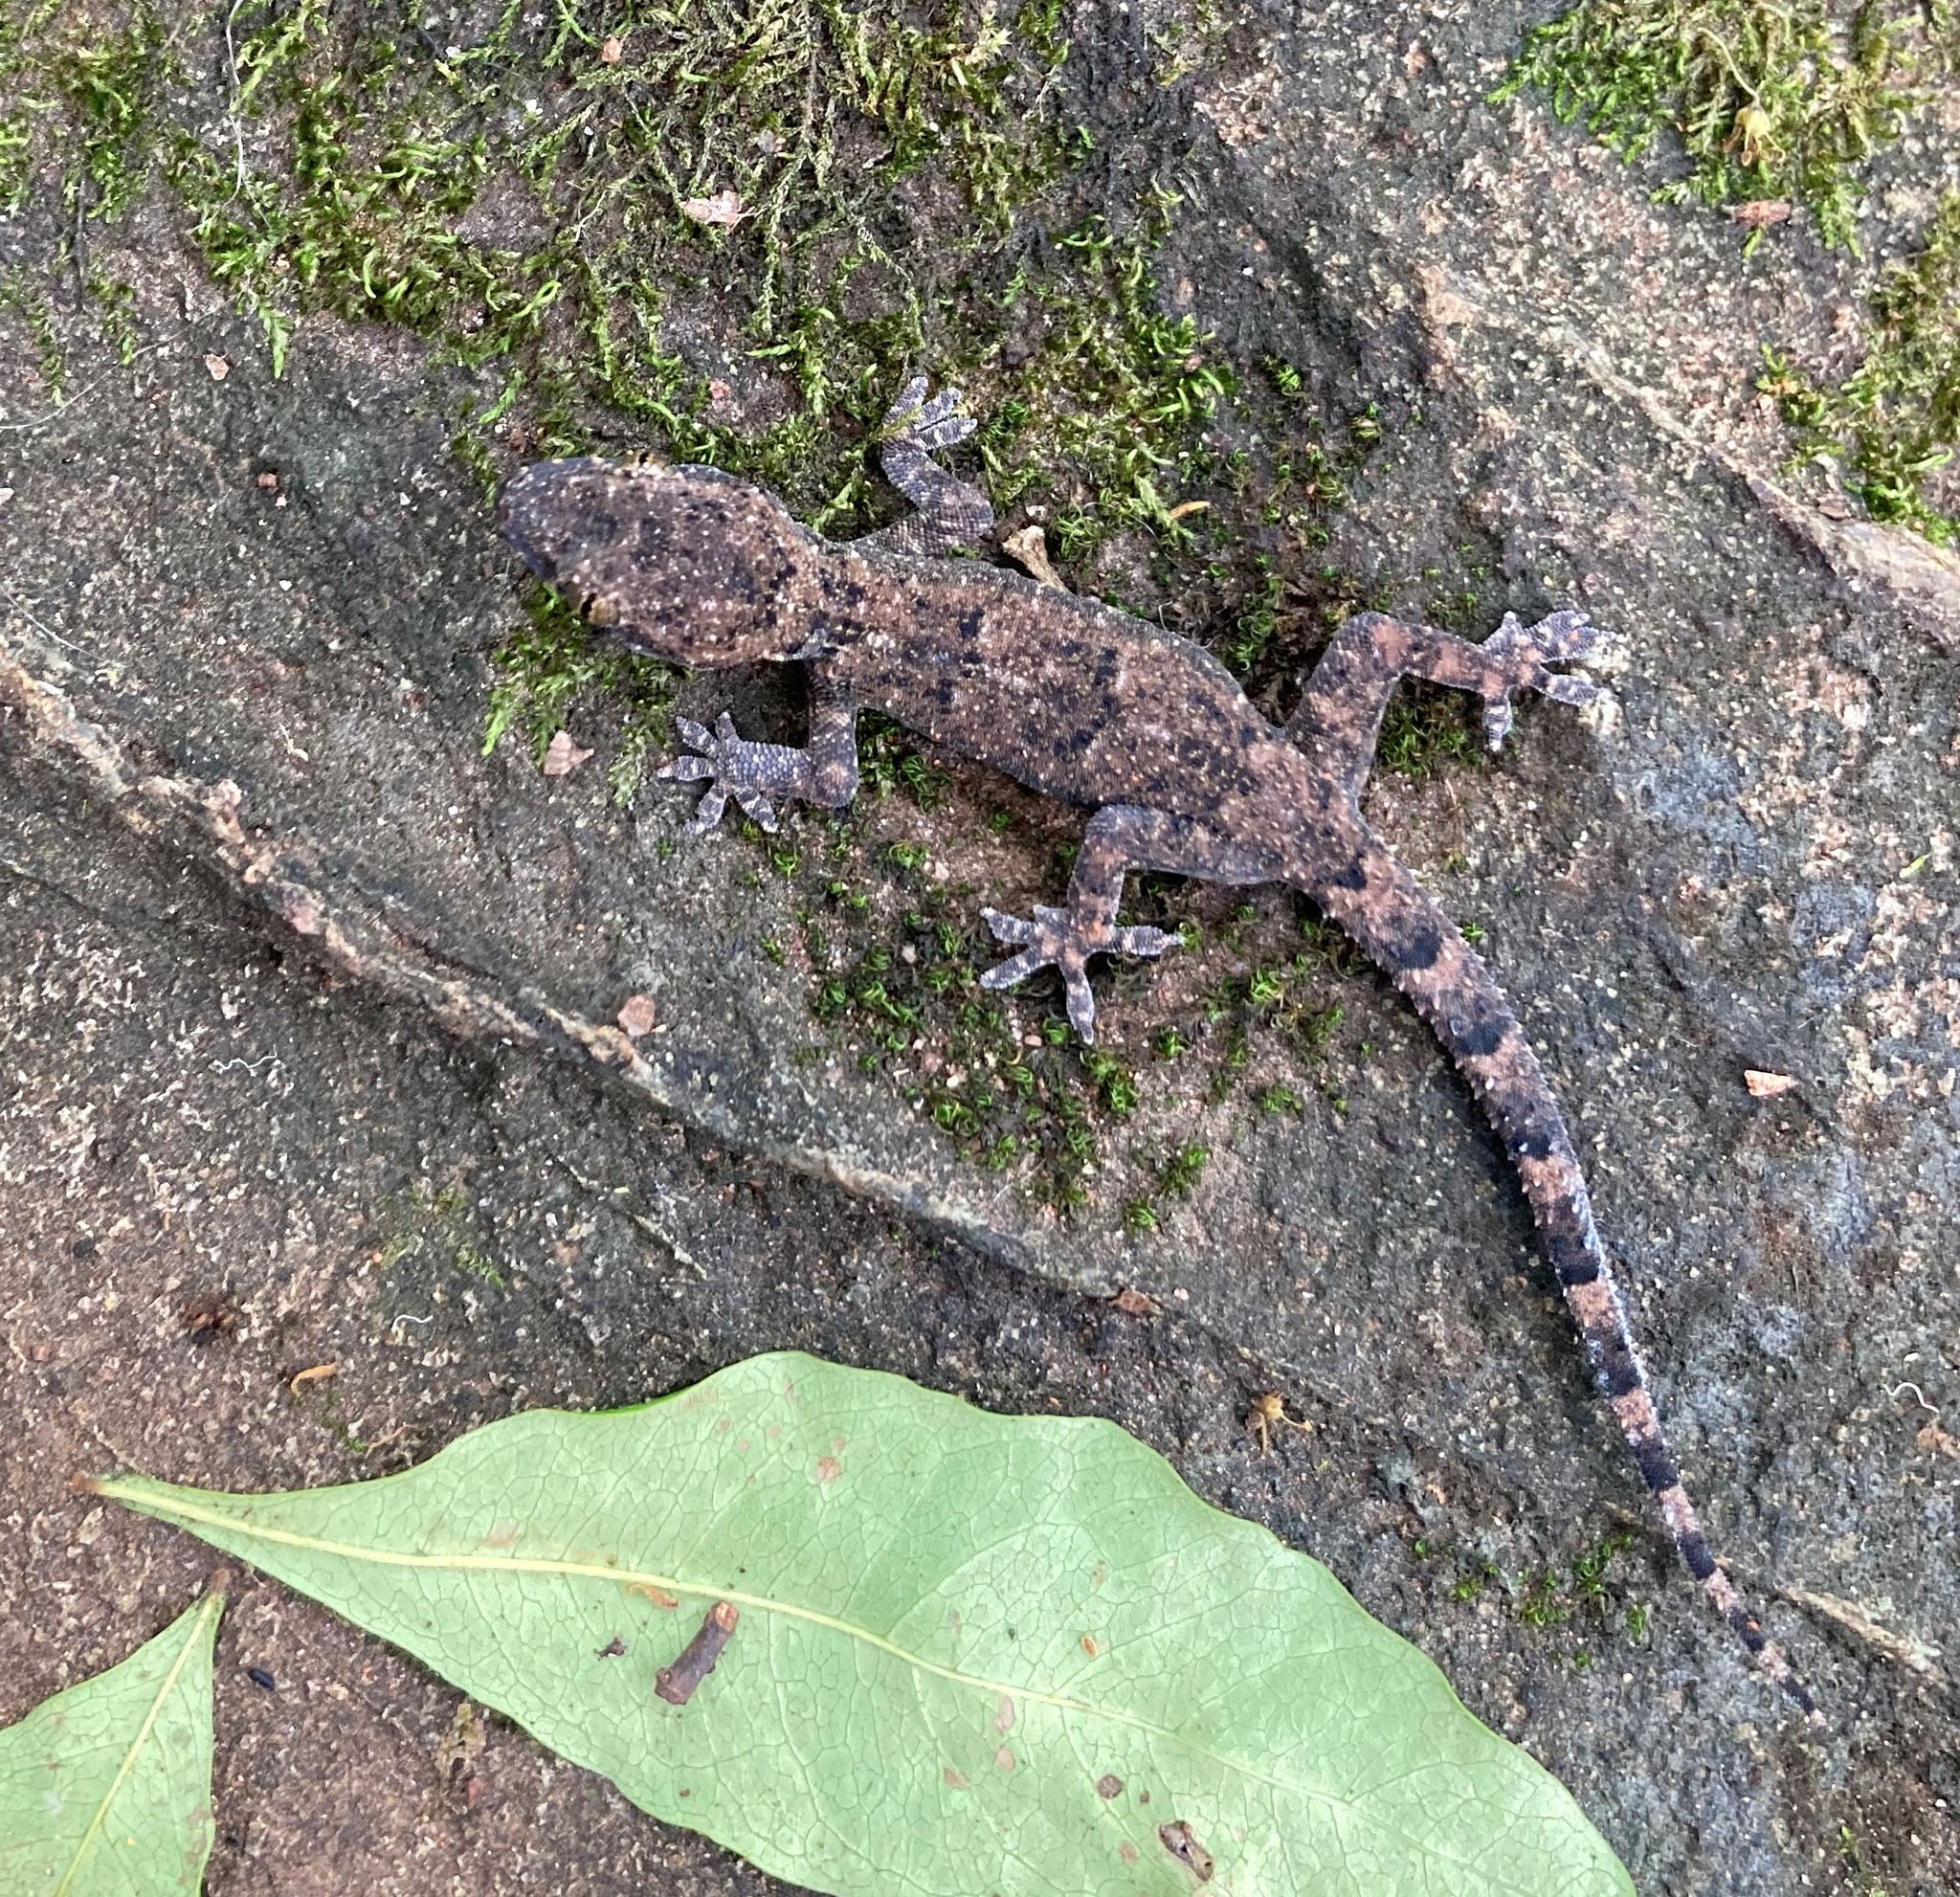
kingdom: Animalia
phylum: Chordata
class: Squamata
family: Gekkonidae
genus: Hemidactylus
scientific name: Hemidactylus mabouia
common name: House gecko
